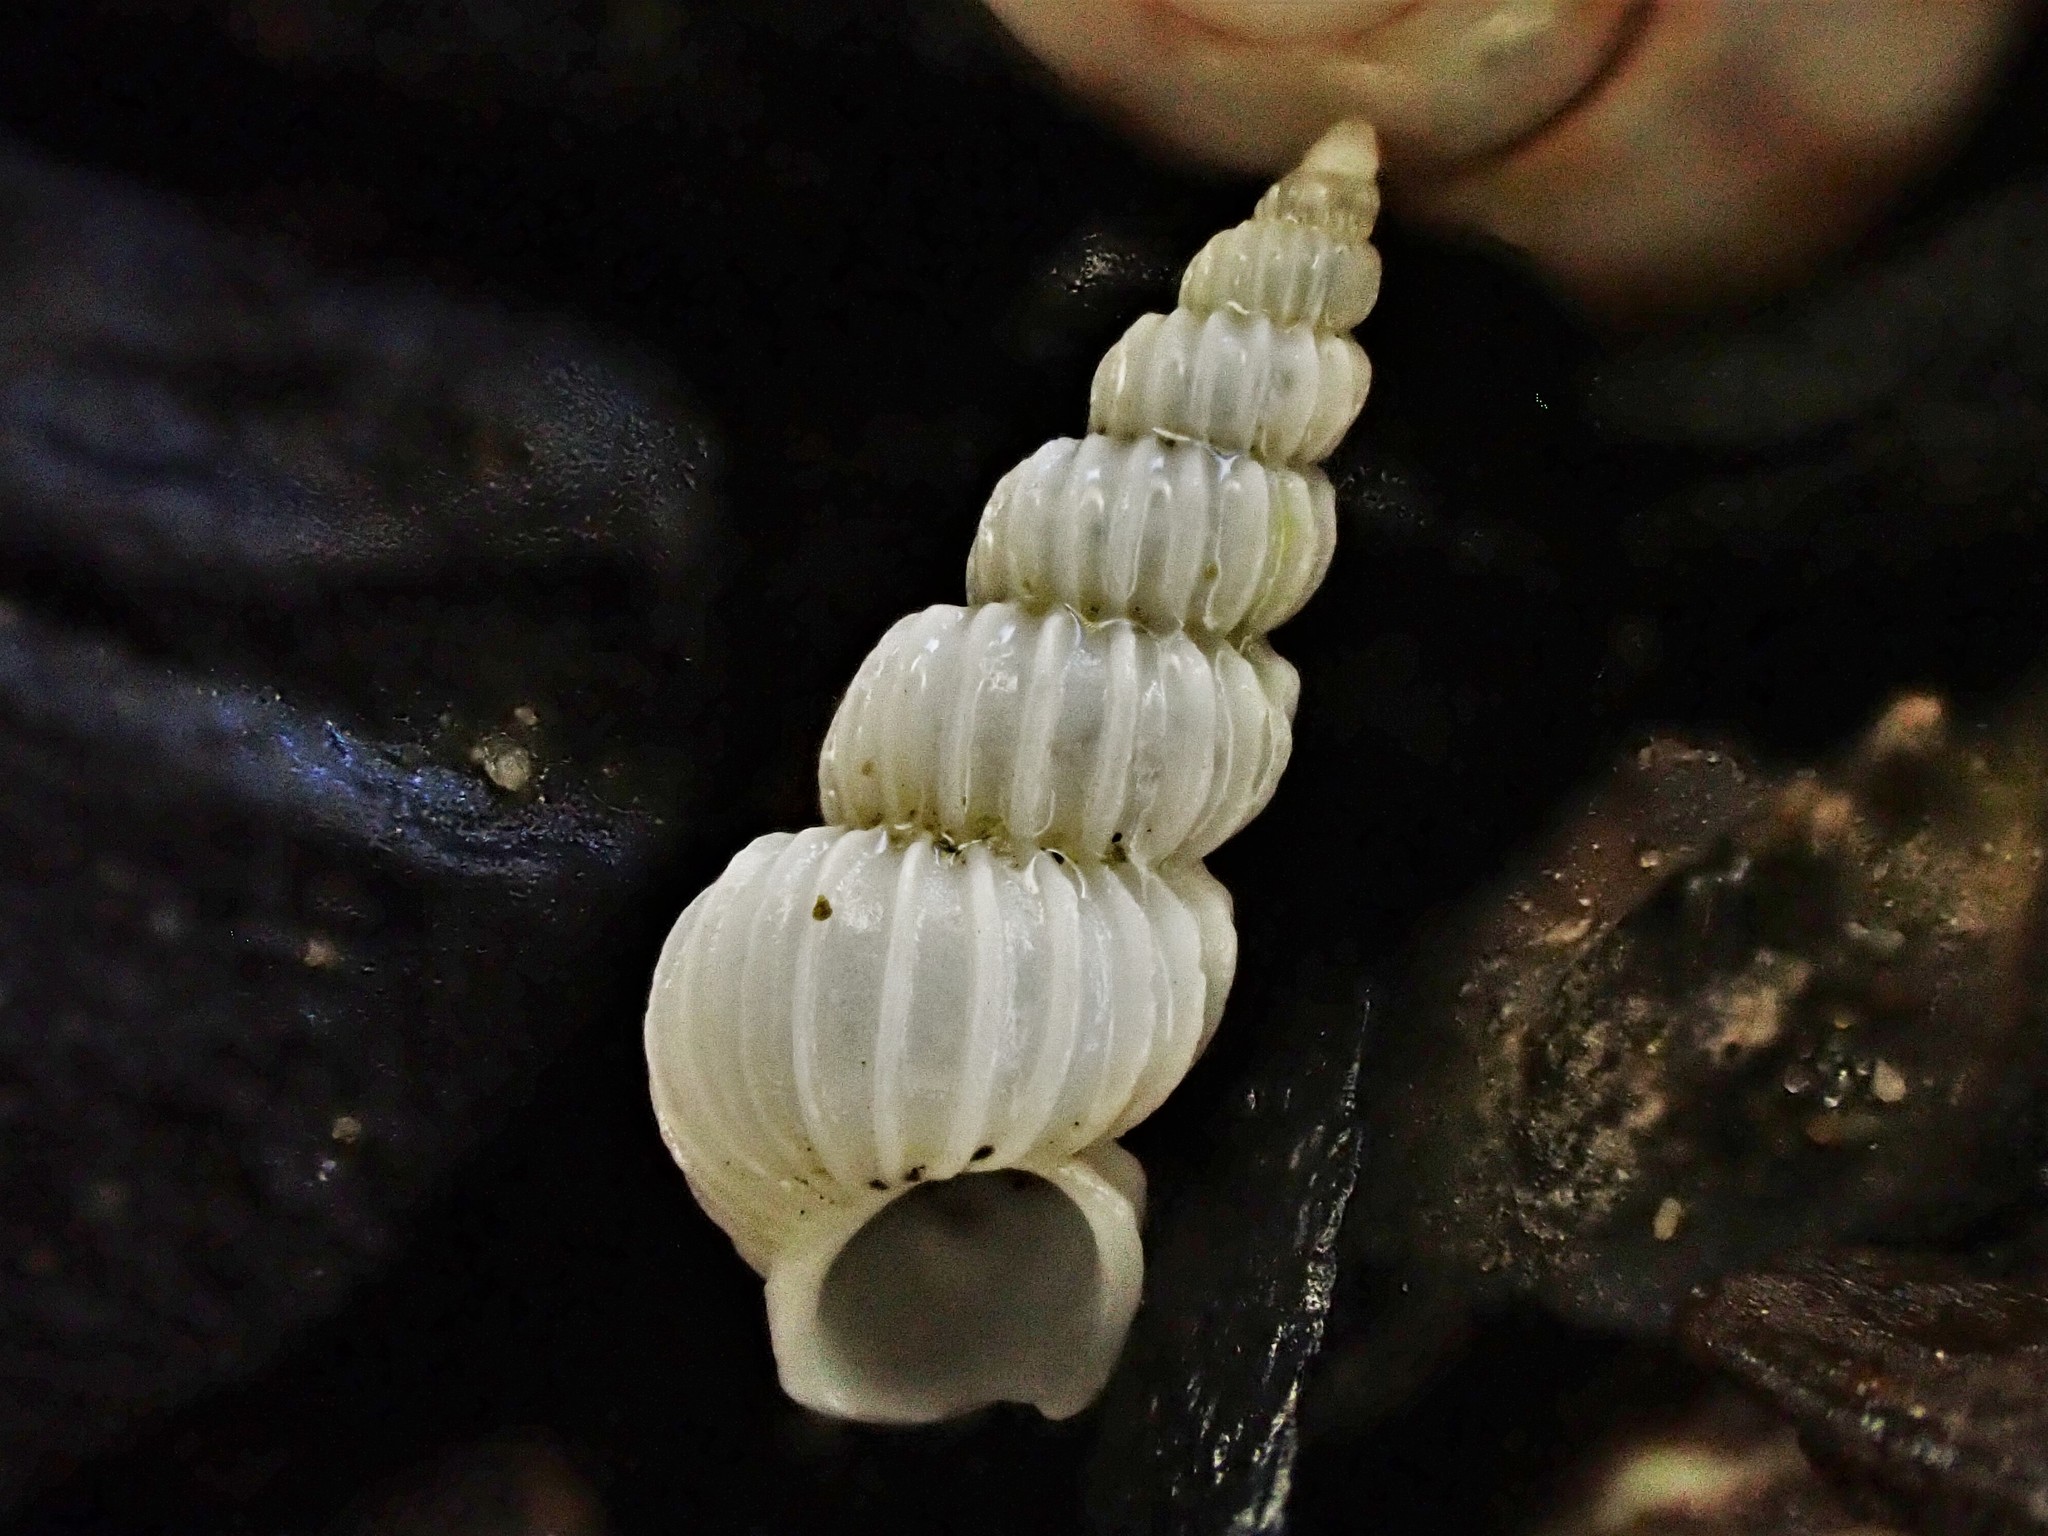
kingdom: Animalia
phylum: Mollusca
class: Gastropoda
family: Epitoniidae
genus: Epitonium
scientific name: Epitonium jukesianum
